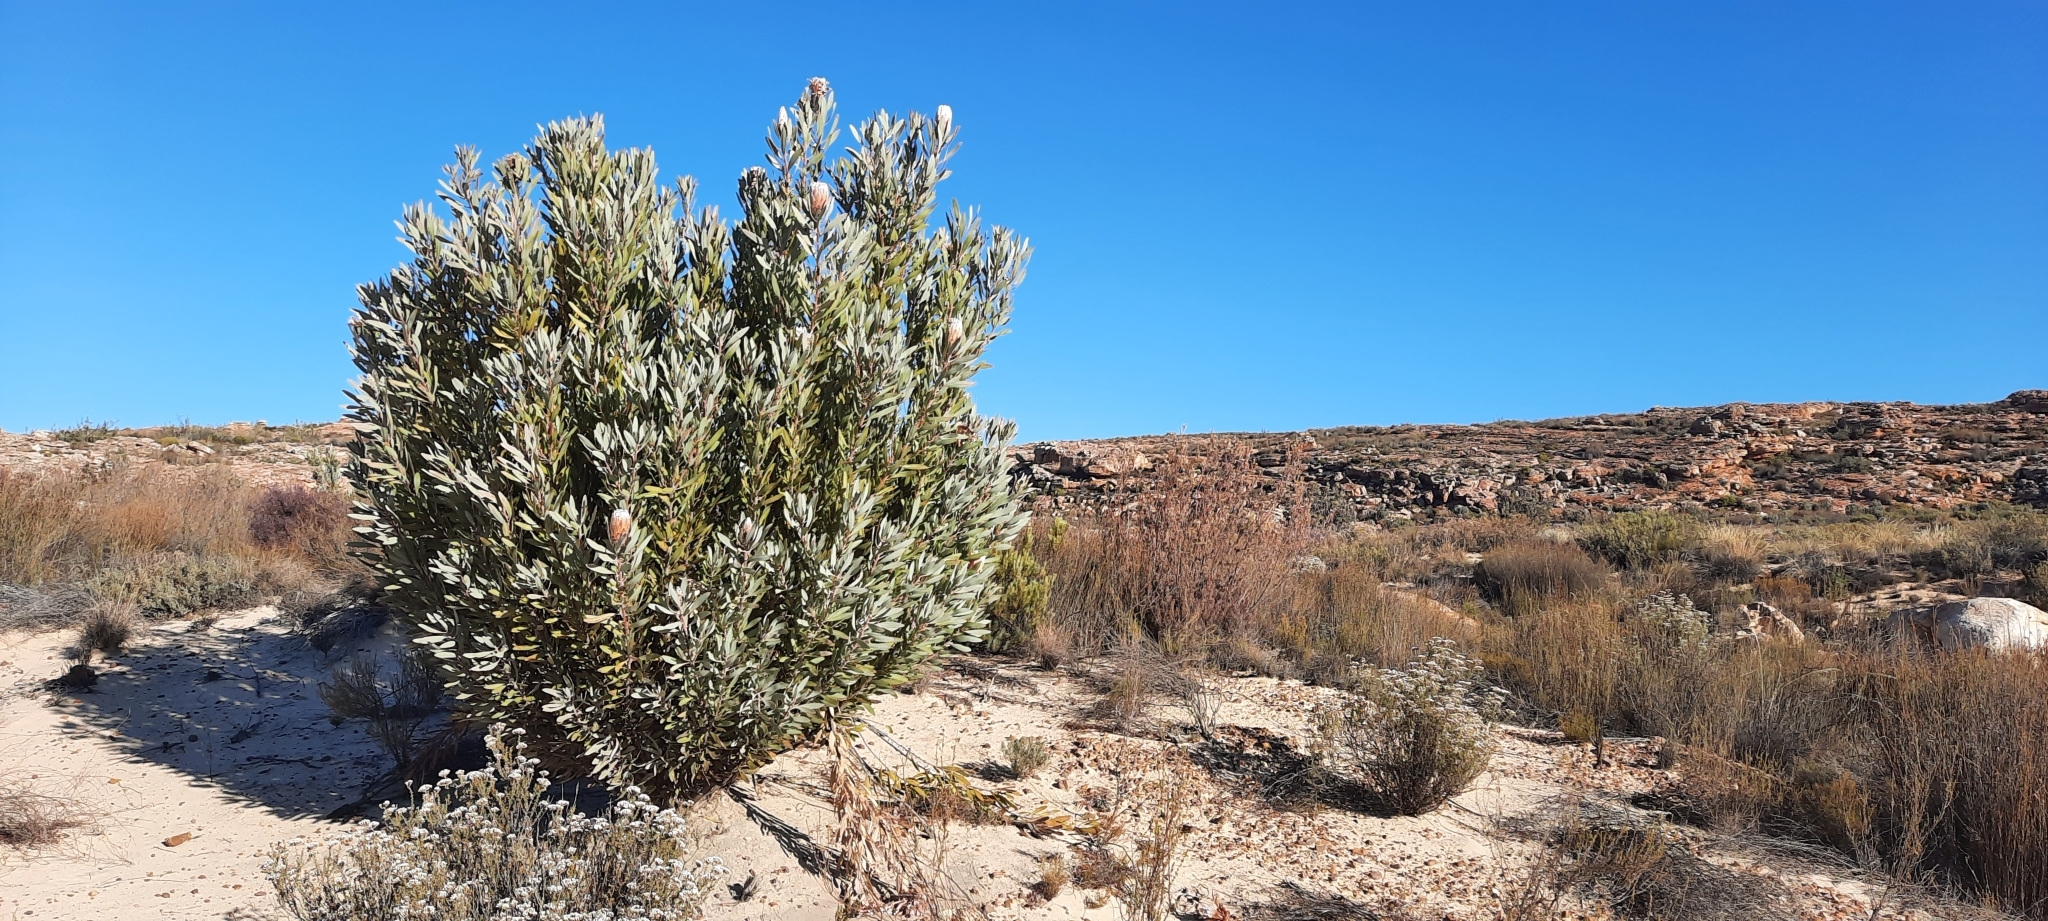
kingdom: Plantae
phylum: Tracheophyta
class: Magnoliopsida
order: Proteales
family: Proteaceae
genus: Protea
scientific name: Protea laurifolia
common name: Grey-leaf sugarbsh
